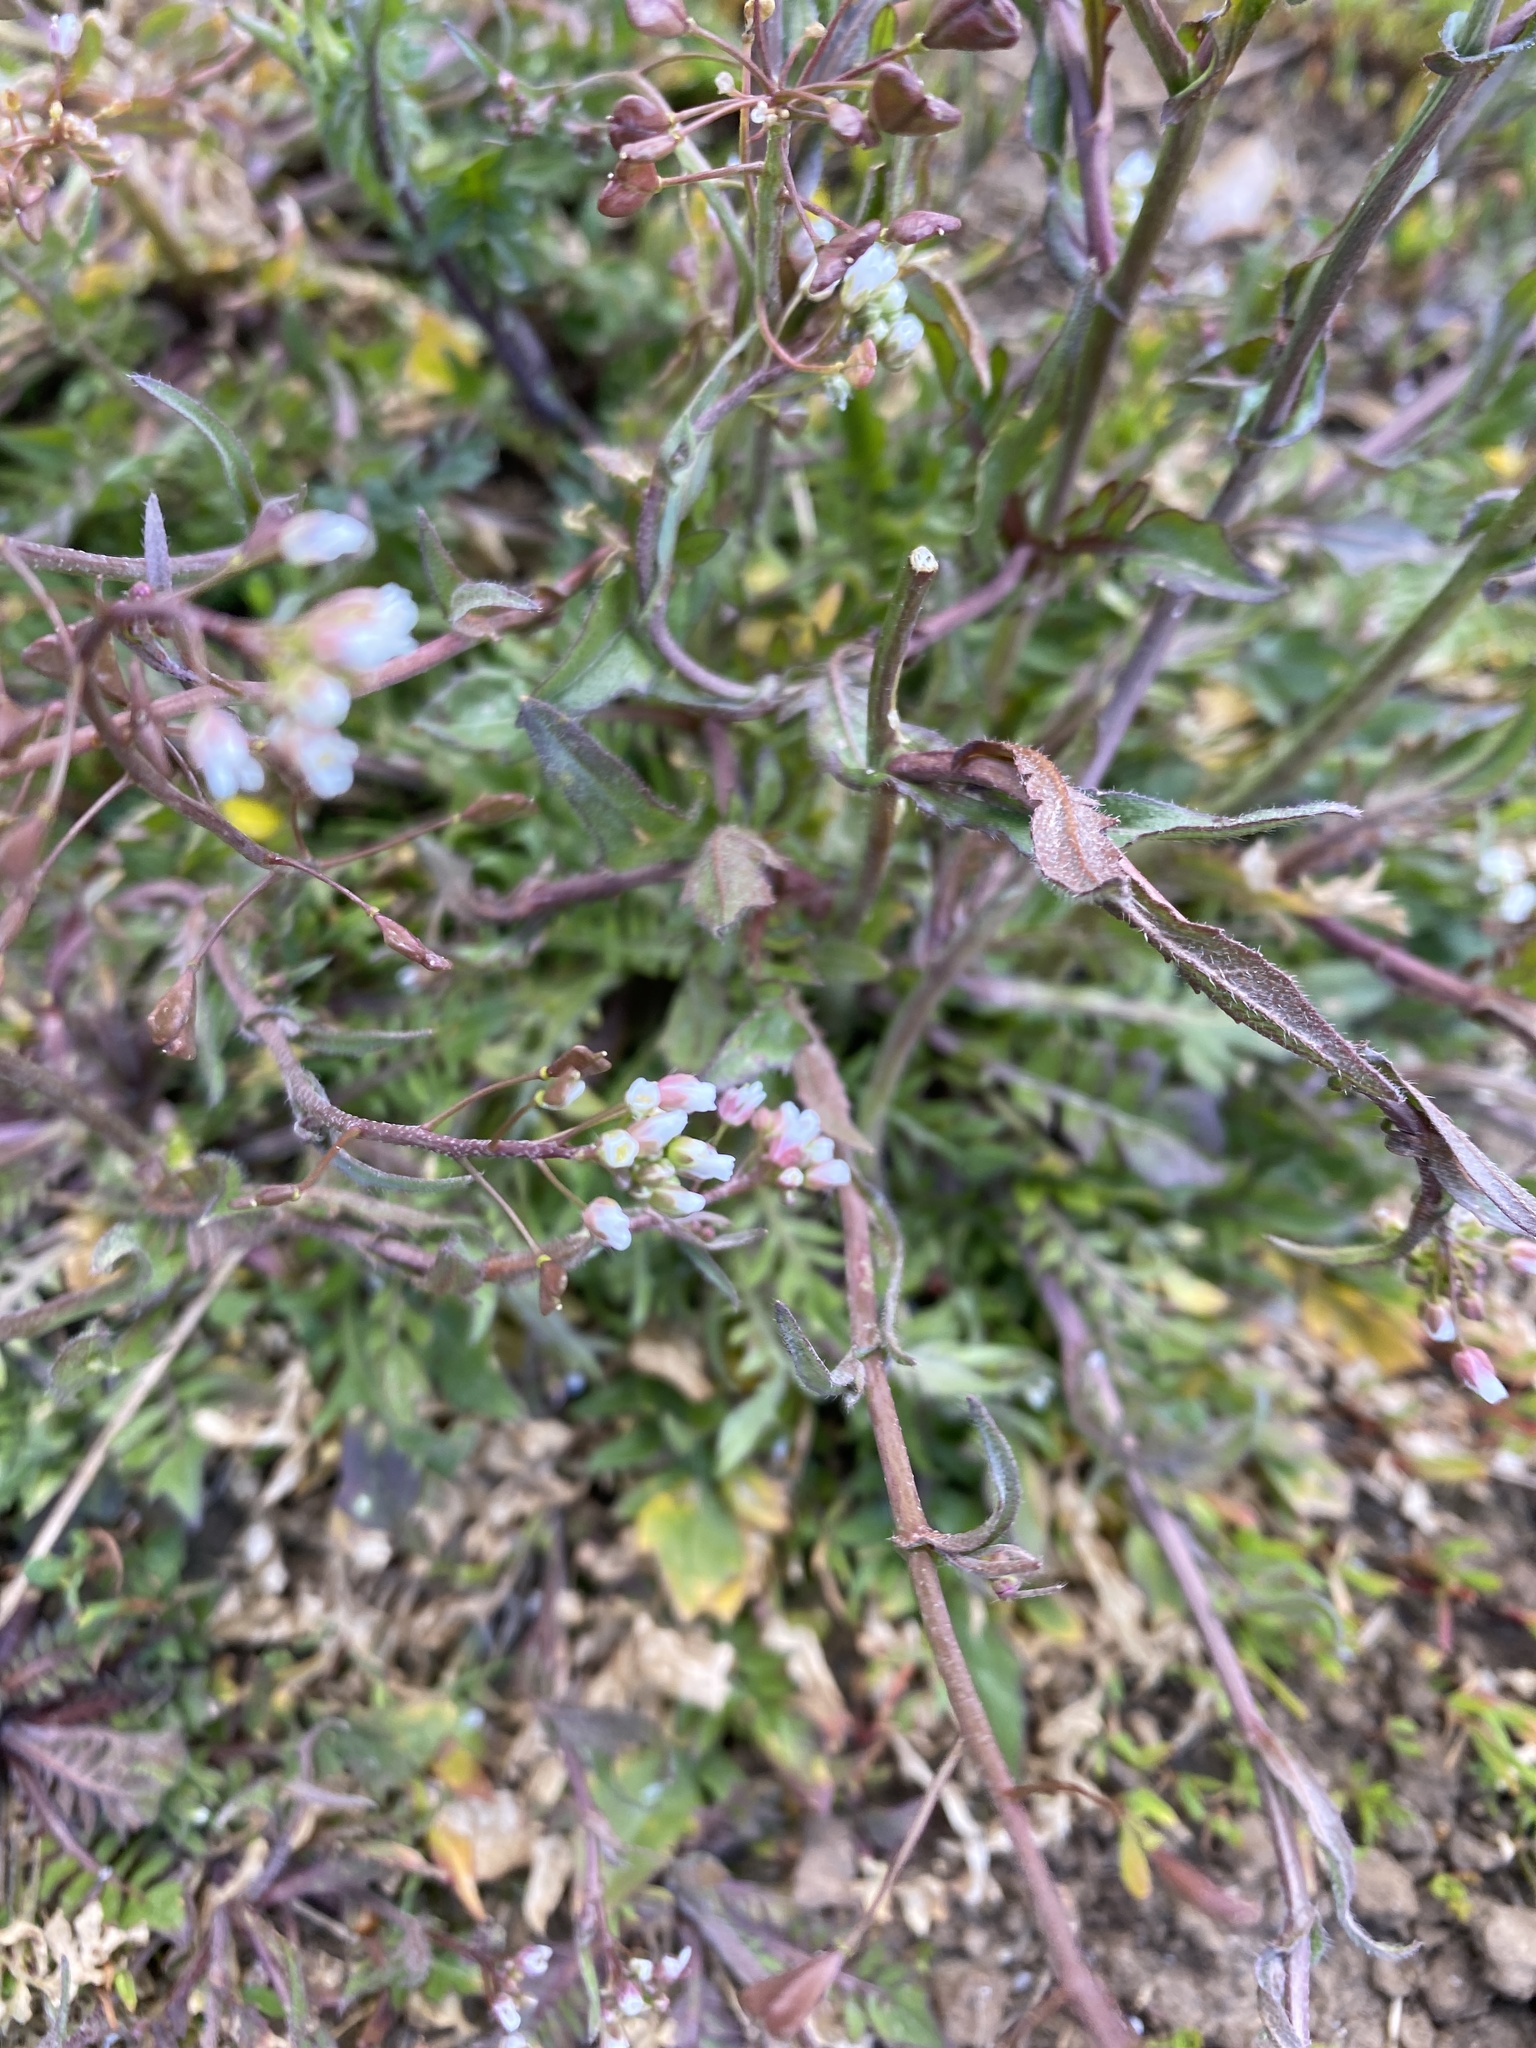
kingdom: Plantae
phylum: Tracheophyta
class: Magnoliopsida
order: Brassicales
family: Brassicaceae
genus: Capsella
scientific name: Capsella bursa-pastoris
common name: Shepherd's purse
